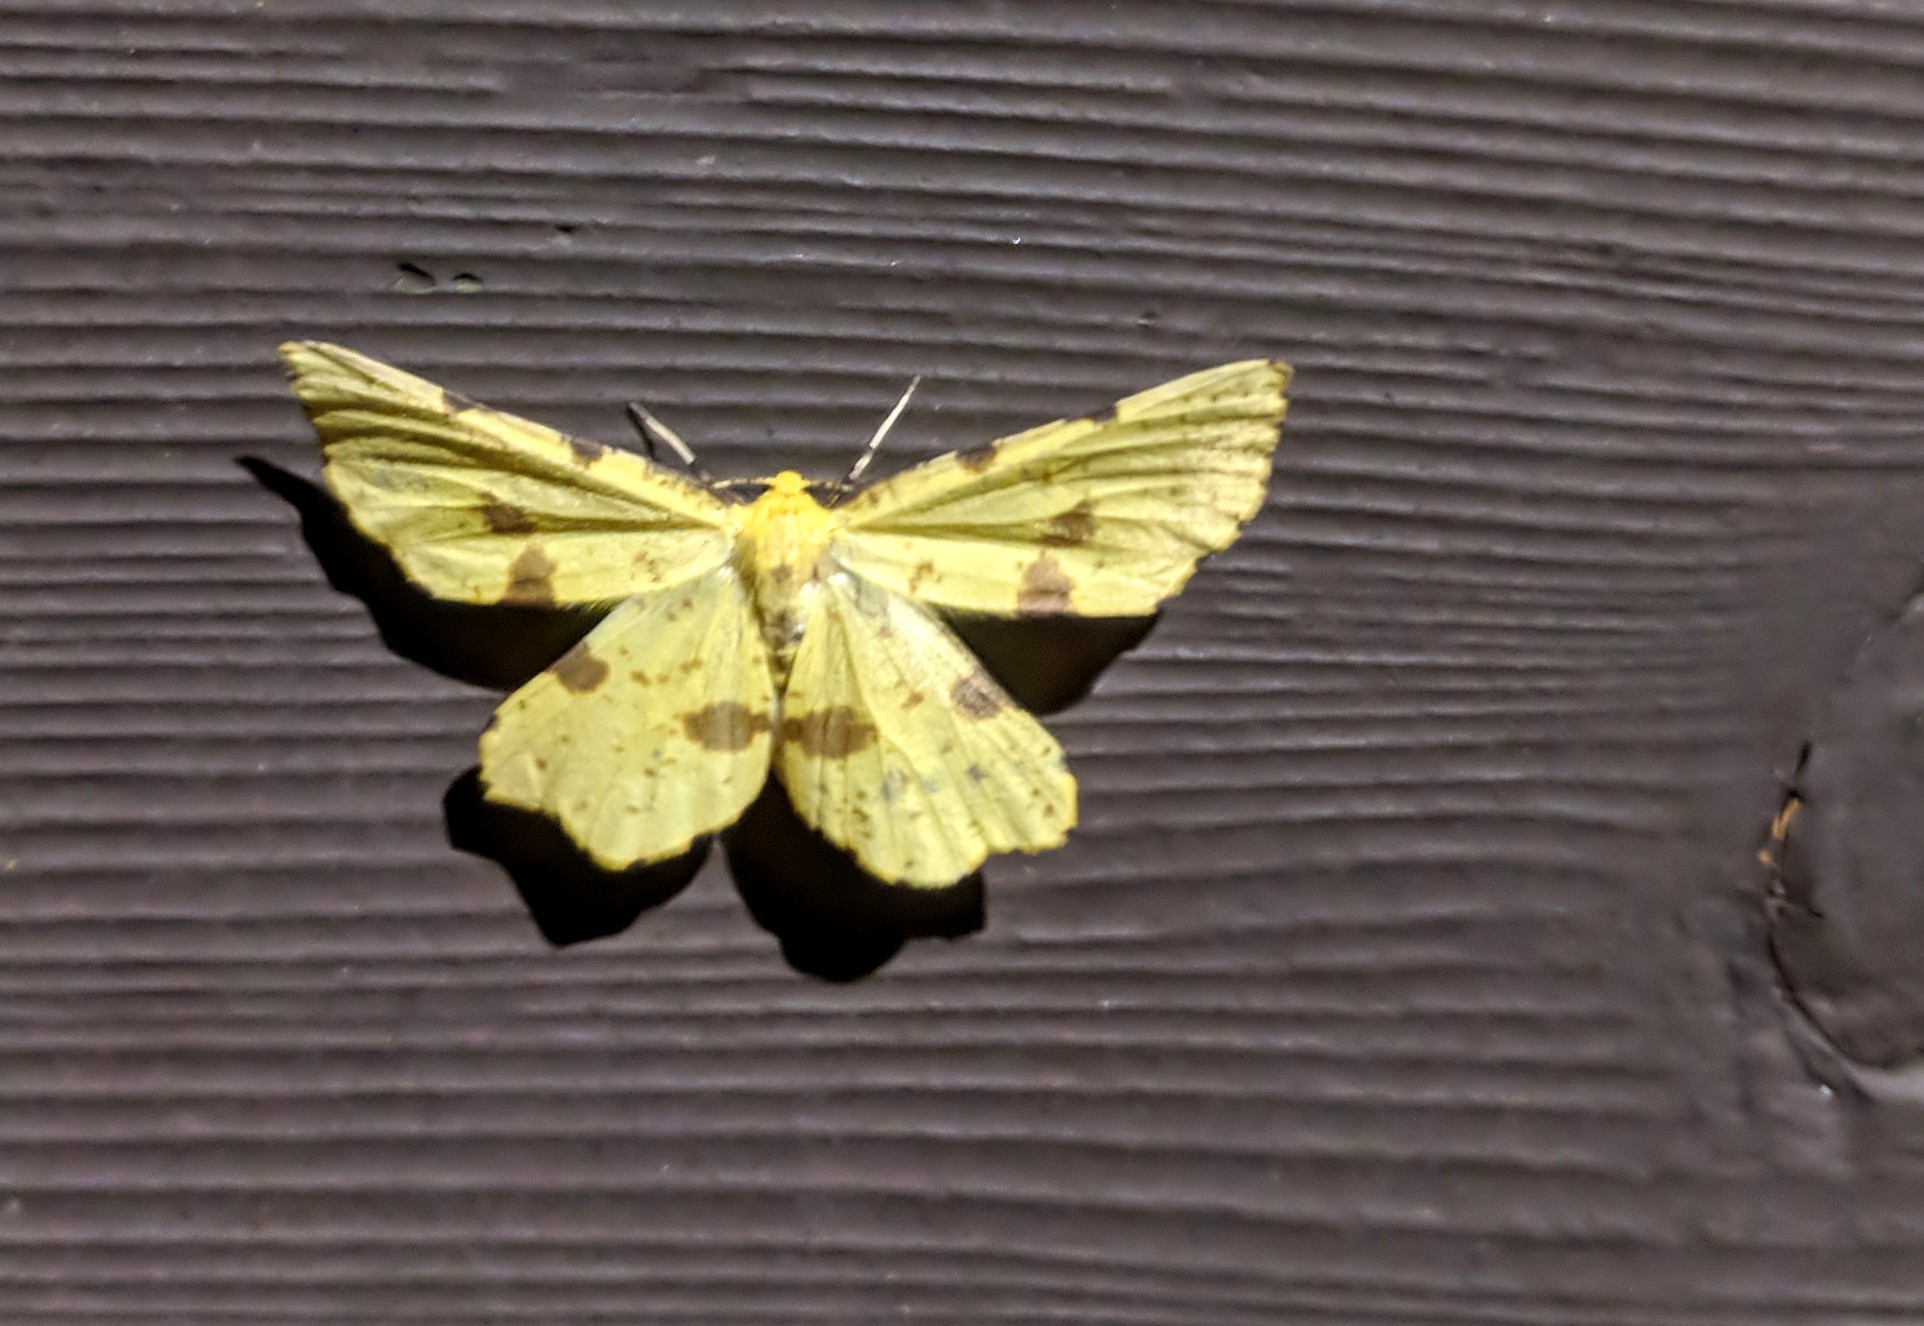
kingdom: Animalia
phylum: Arthropoda
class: Insecta
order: Lepidoptera
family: Geometridae
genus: Xanthotype
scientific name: Xanthotype
